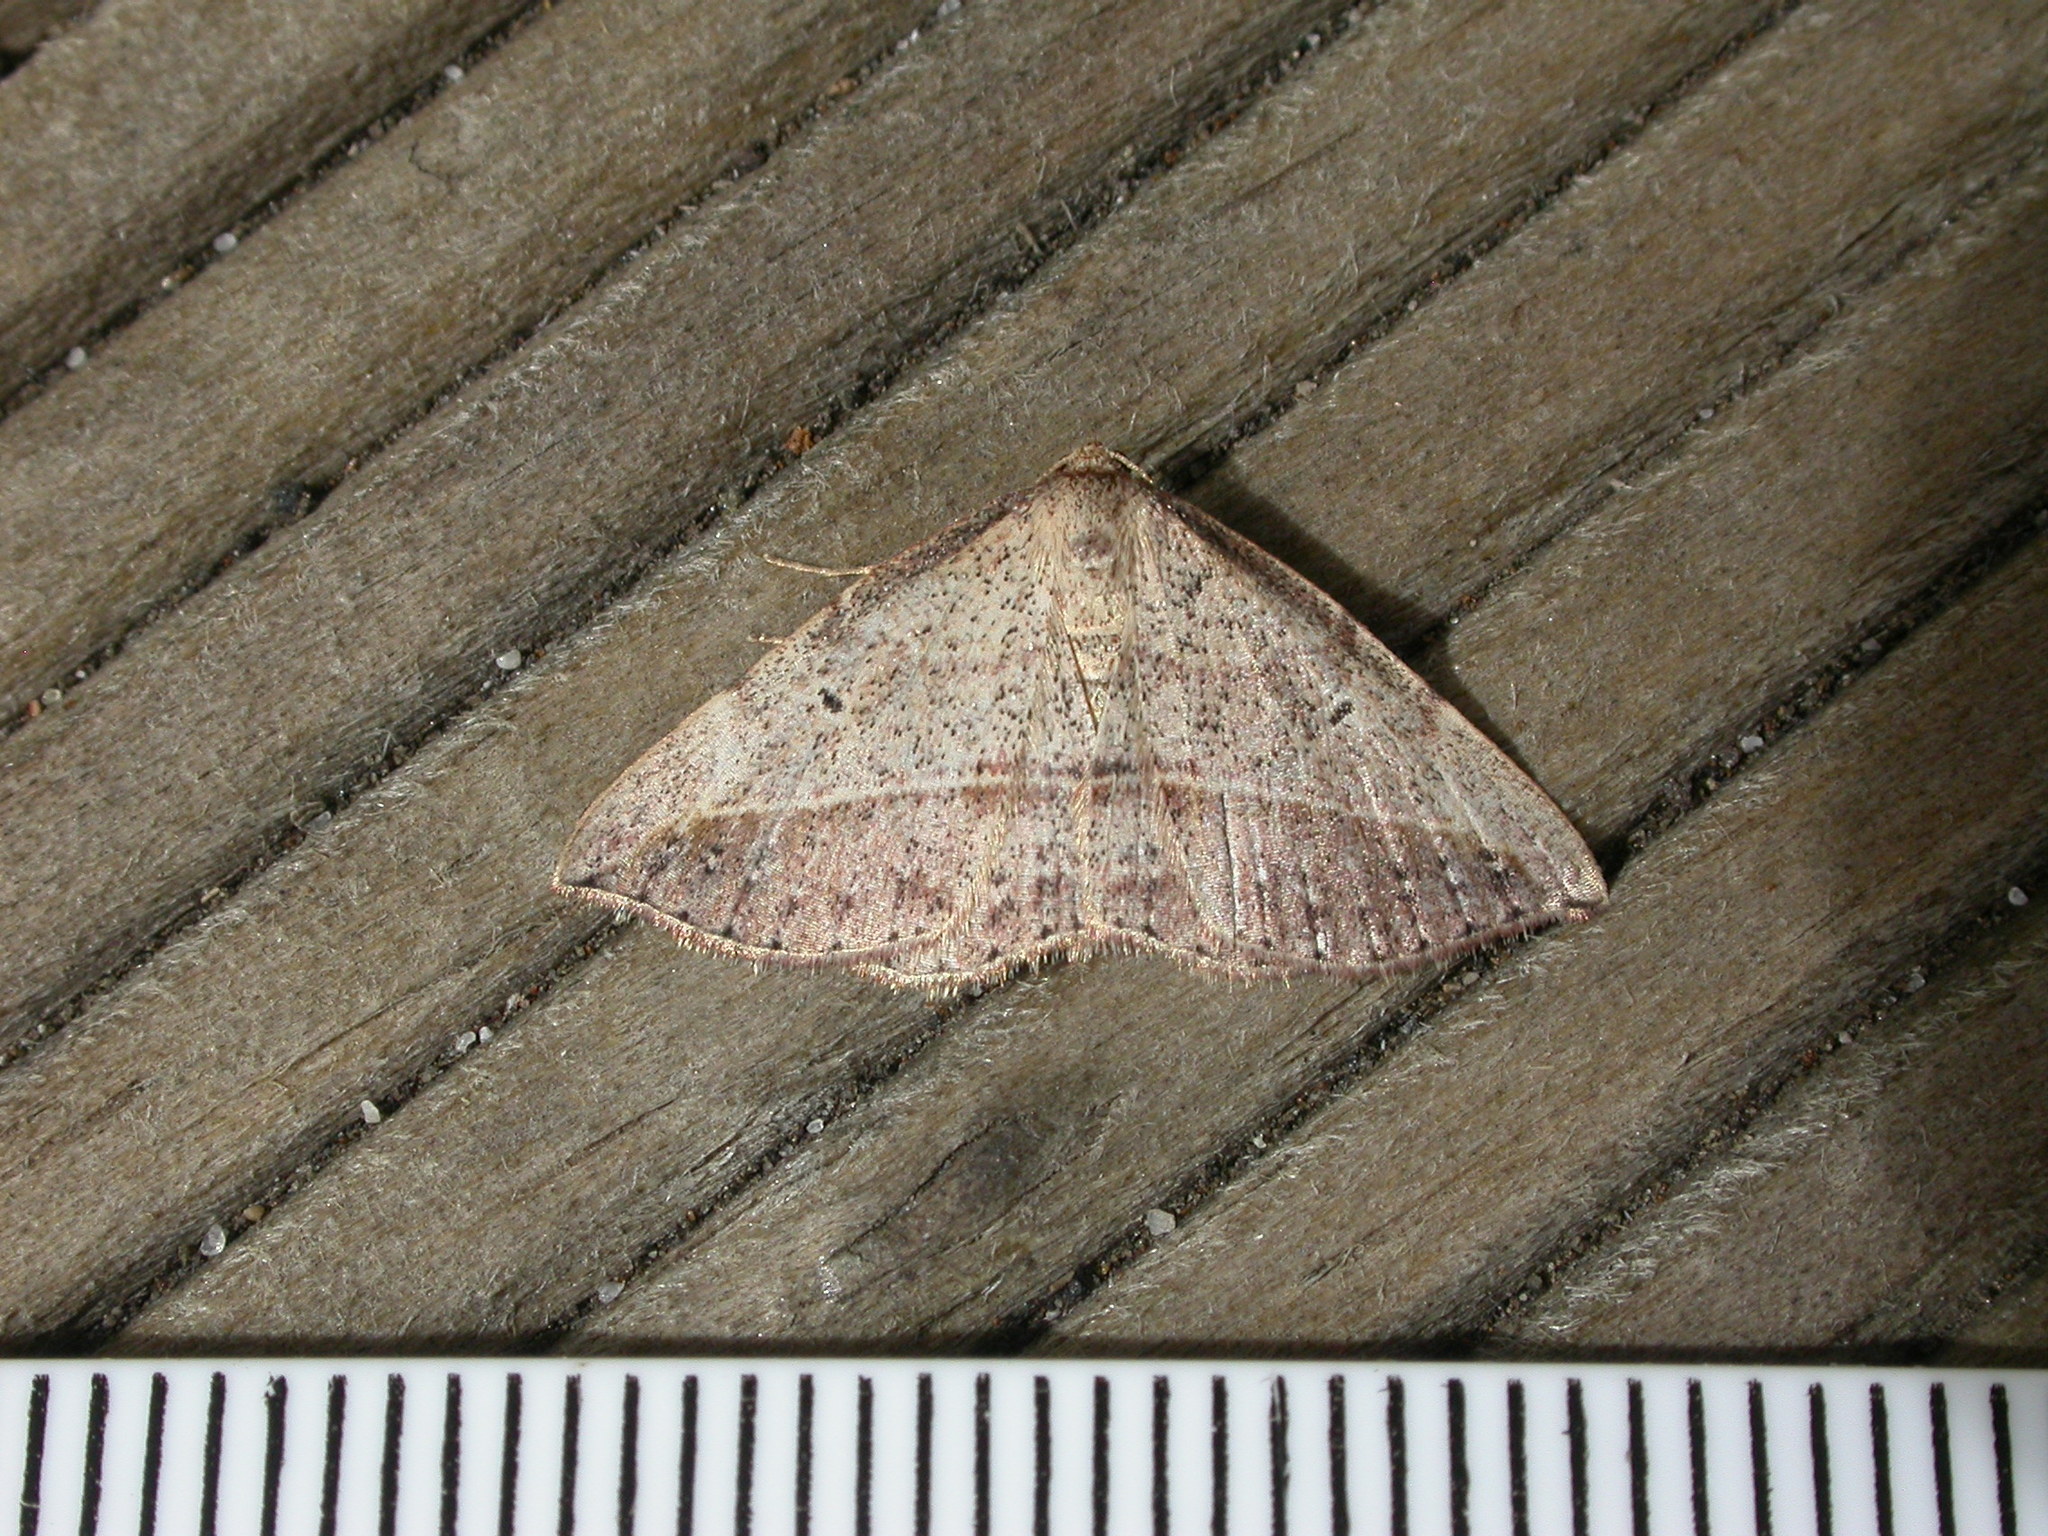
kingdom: Animalia
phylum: Arthropoda
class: Insecta
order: Lepidoptera
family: Geometridae
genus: Zeuctophlebia
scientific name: Zeuctophlebia squalidata
